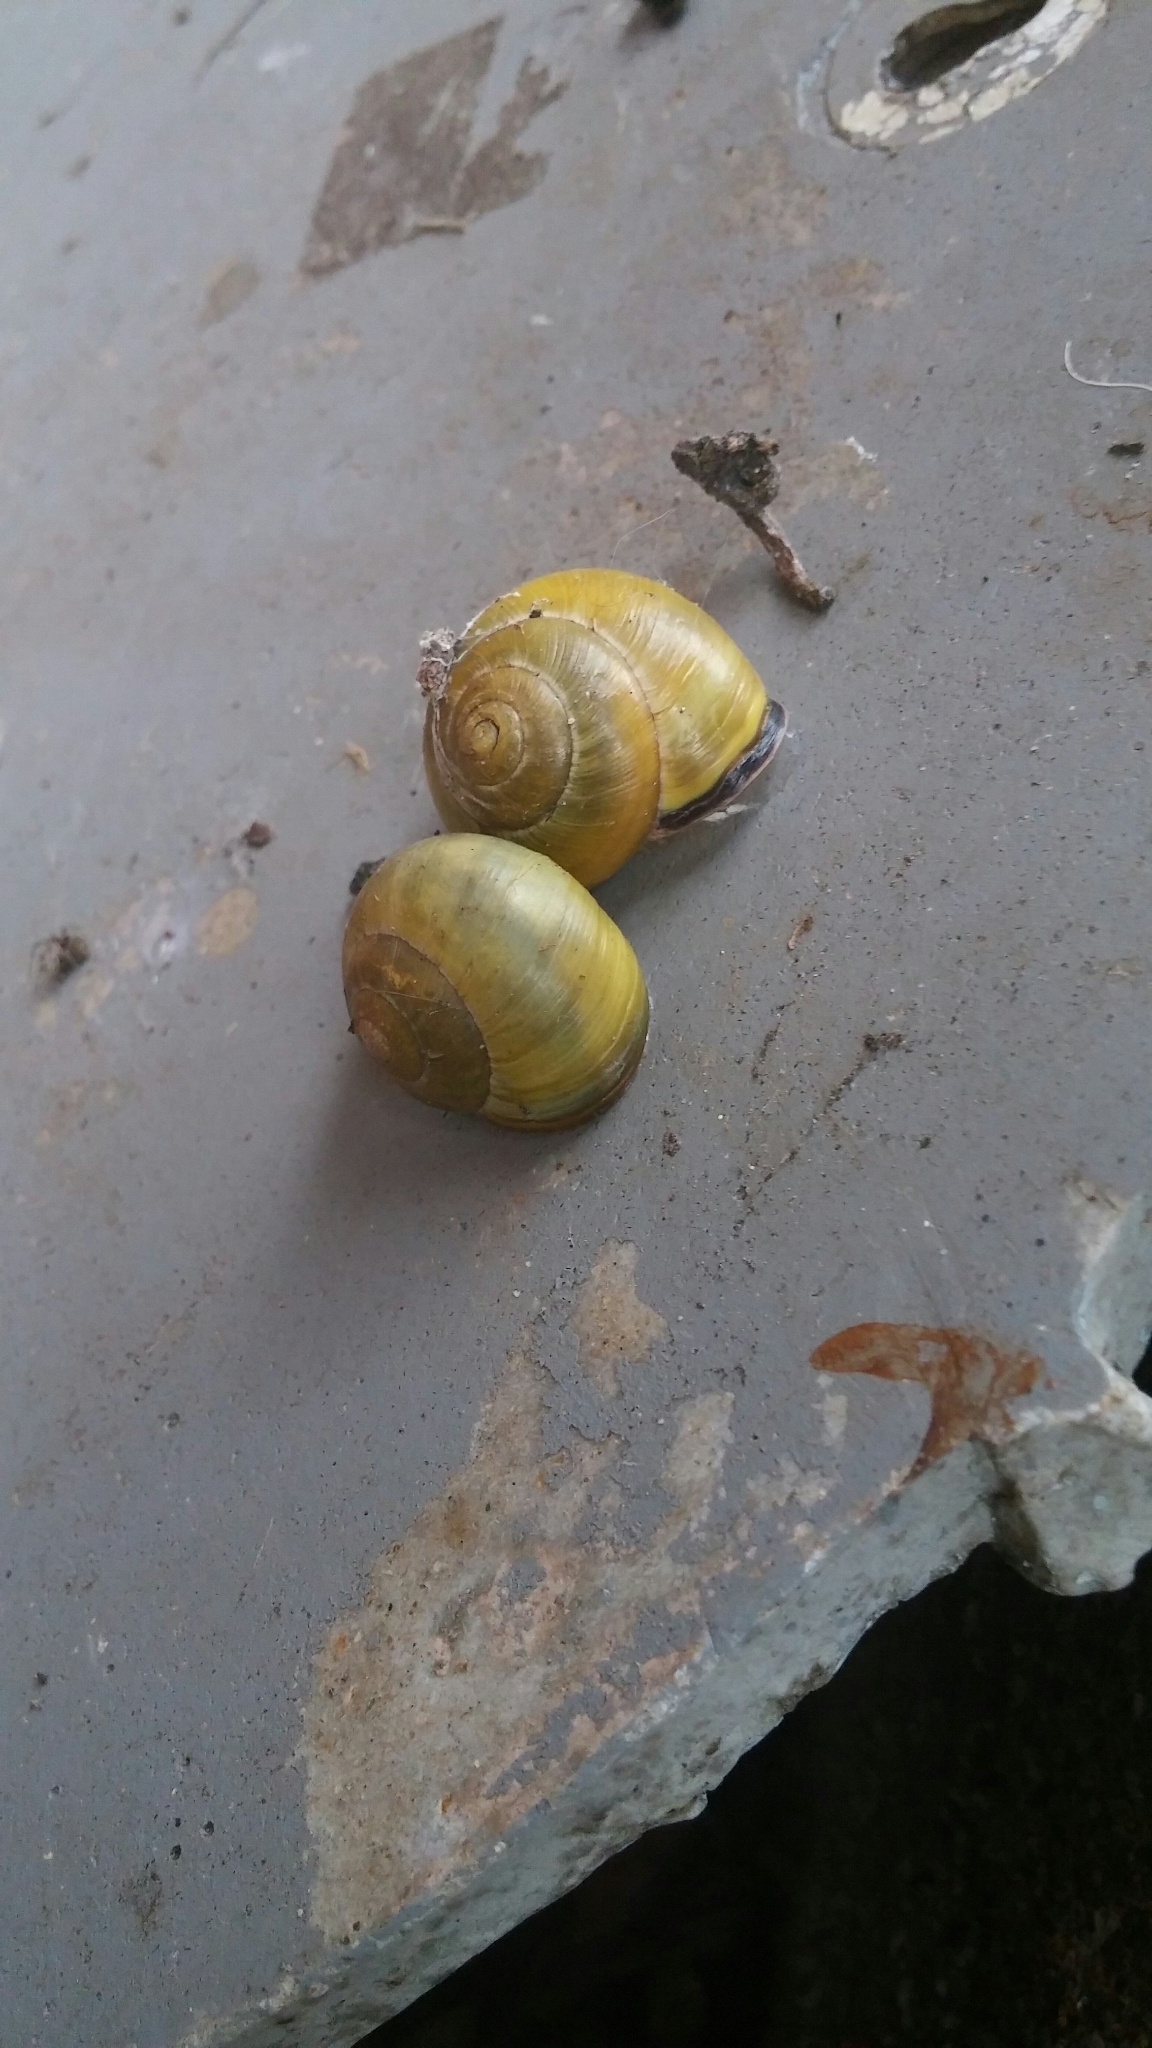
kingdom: Animalia
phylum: Mollusca
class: Gastropoda
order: Stylommatophora
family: Helicidae
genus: Cepaea
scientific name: Cepaea nemoralis
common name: Grovesnail
